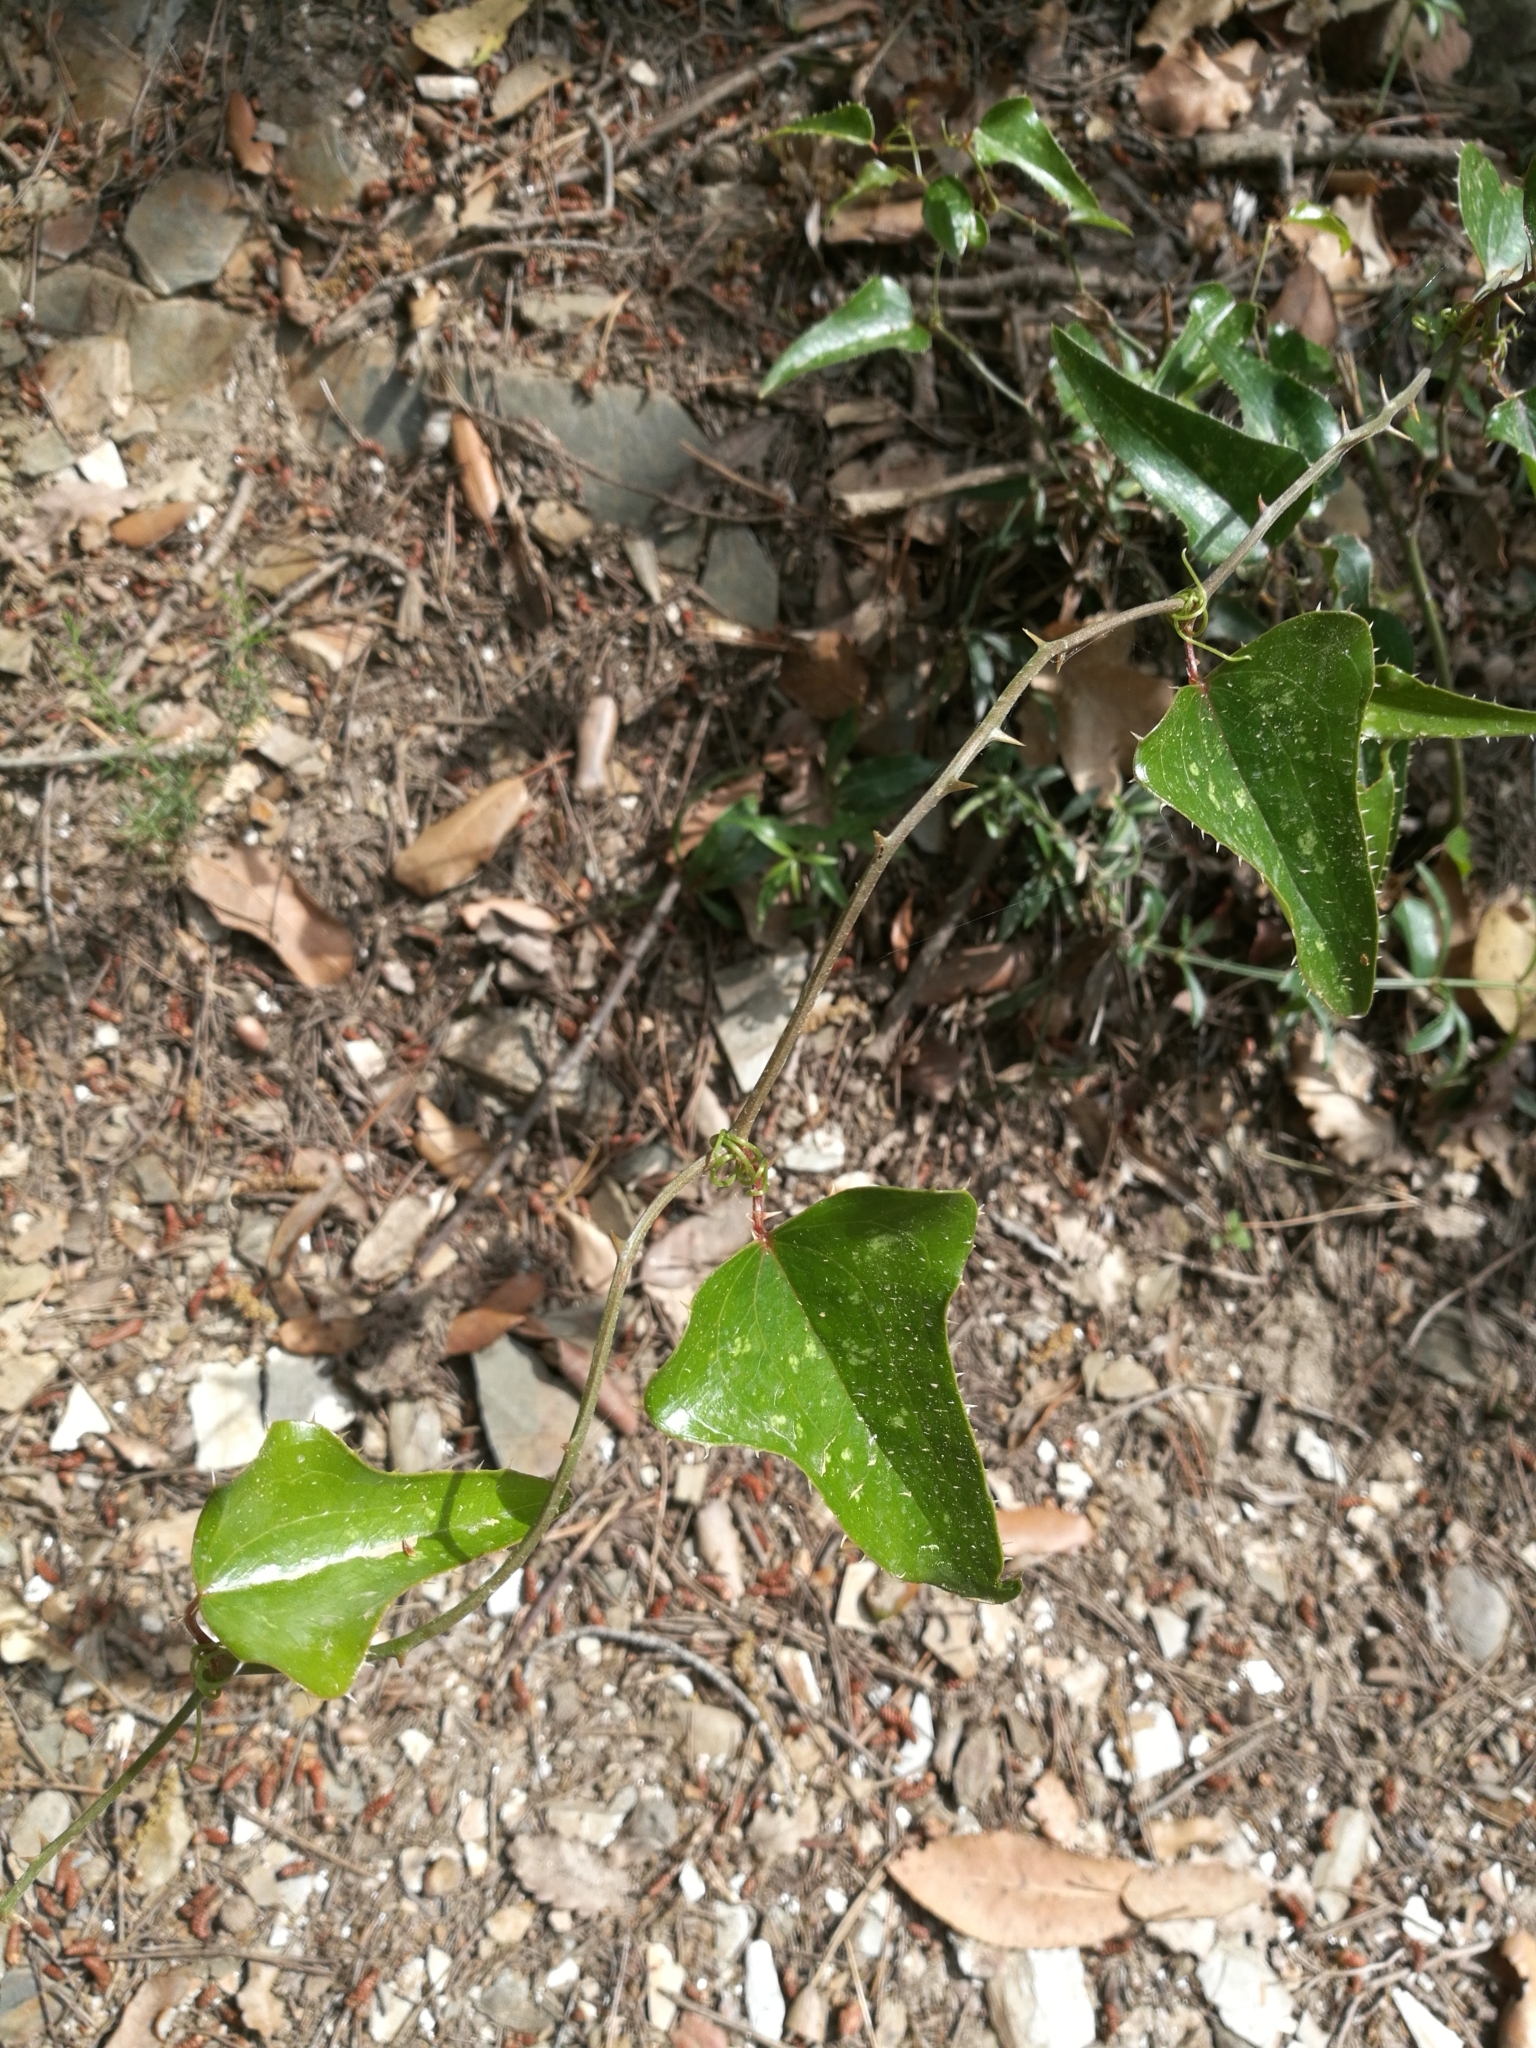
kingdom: Plantae
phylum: Tracheophyta
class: Liliopsida
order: Liliales
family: Smilacaceae
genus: Smilax
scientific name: Smilax aspera
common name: Common smilax
